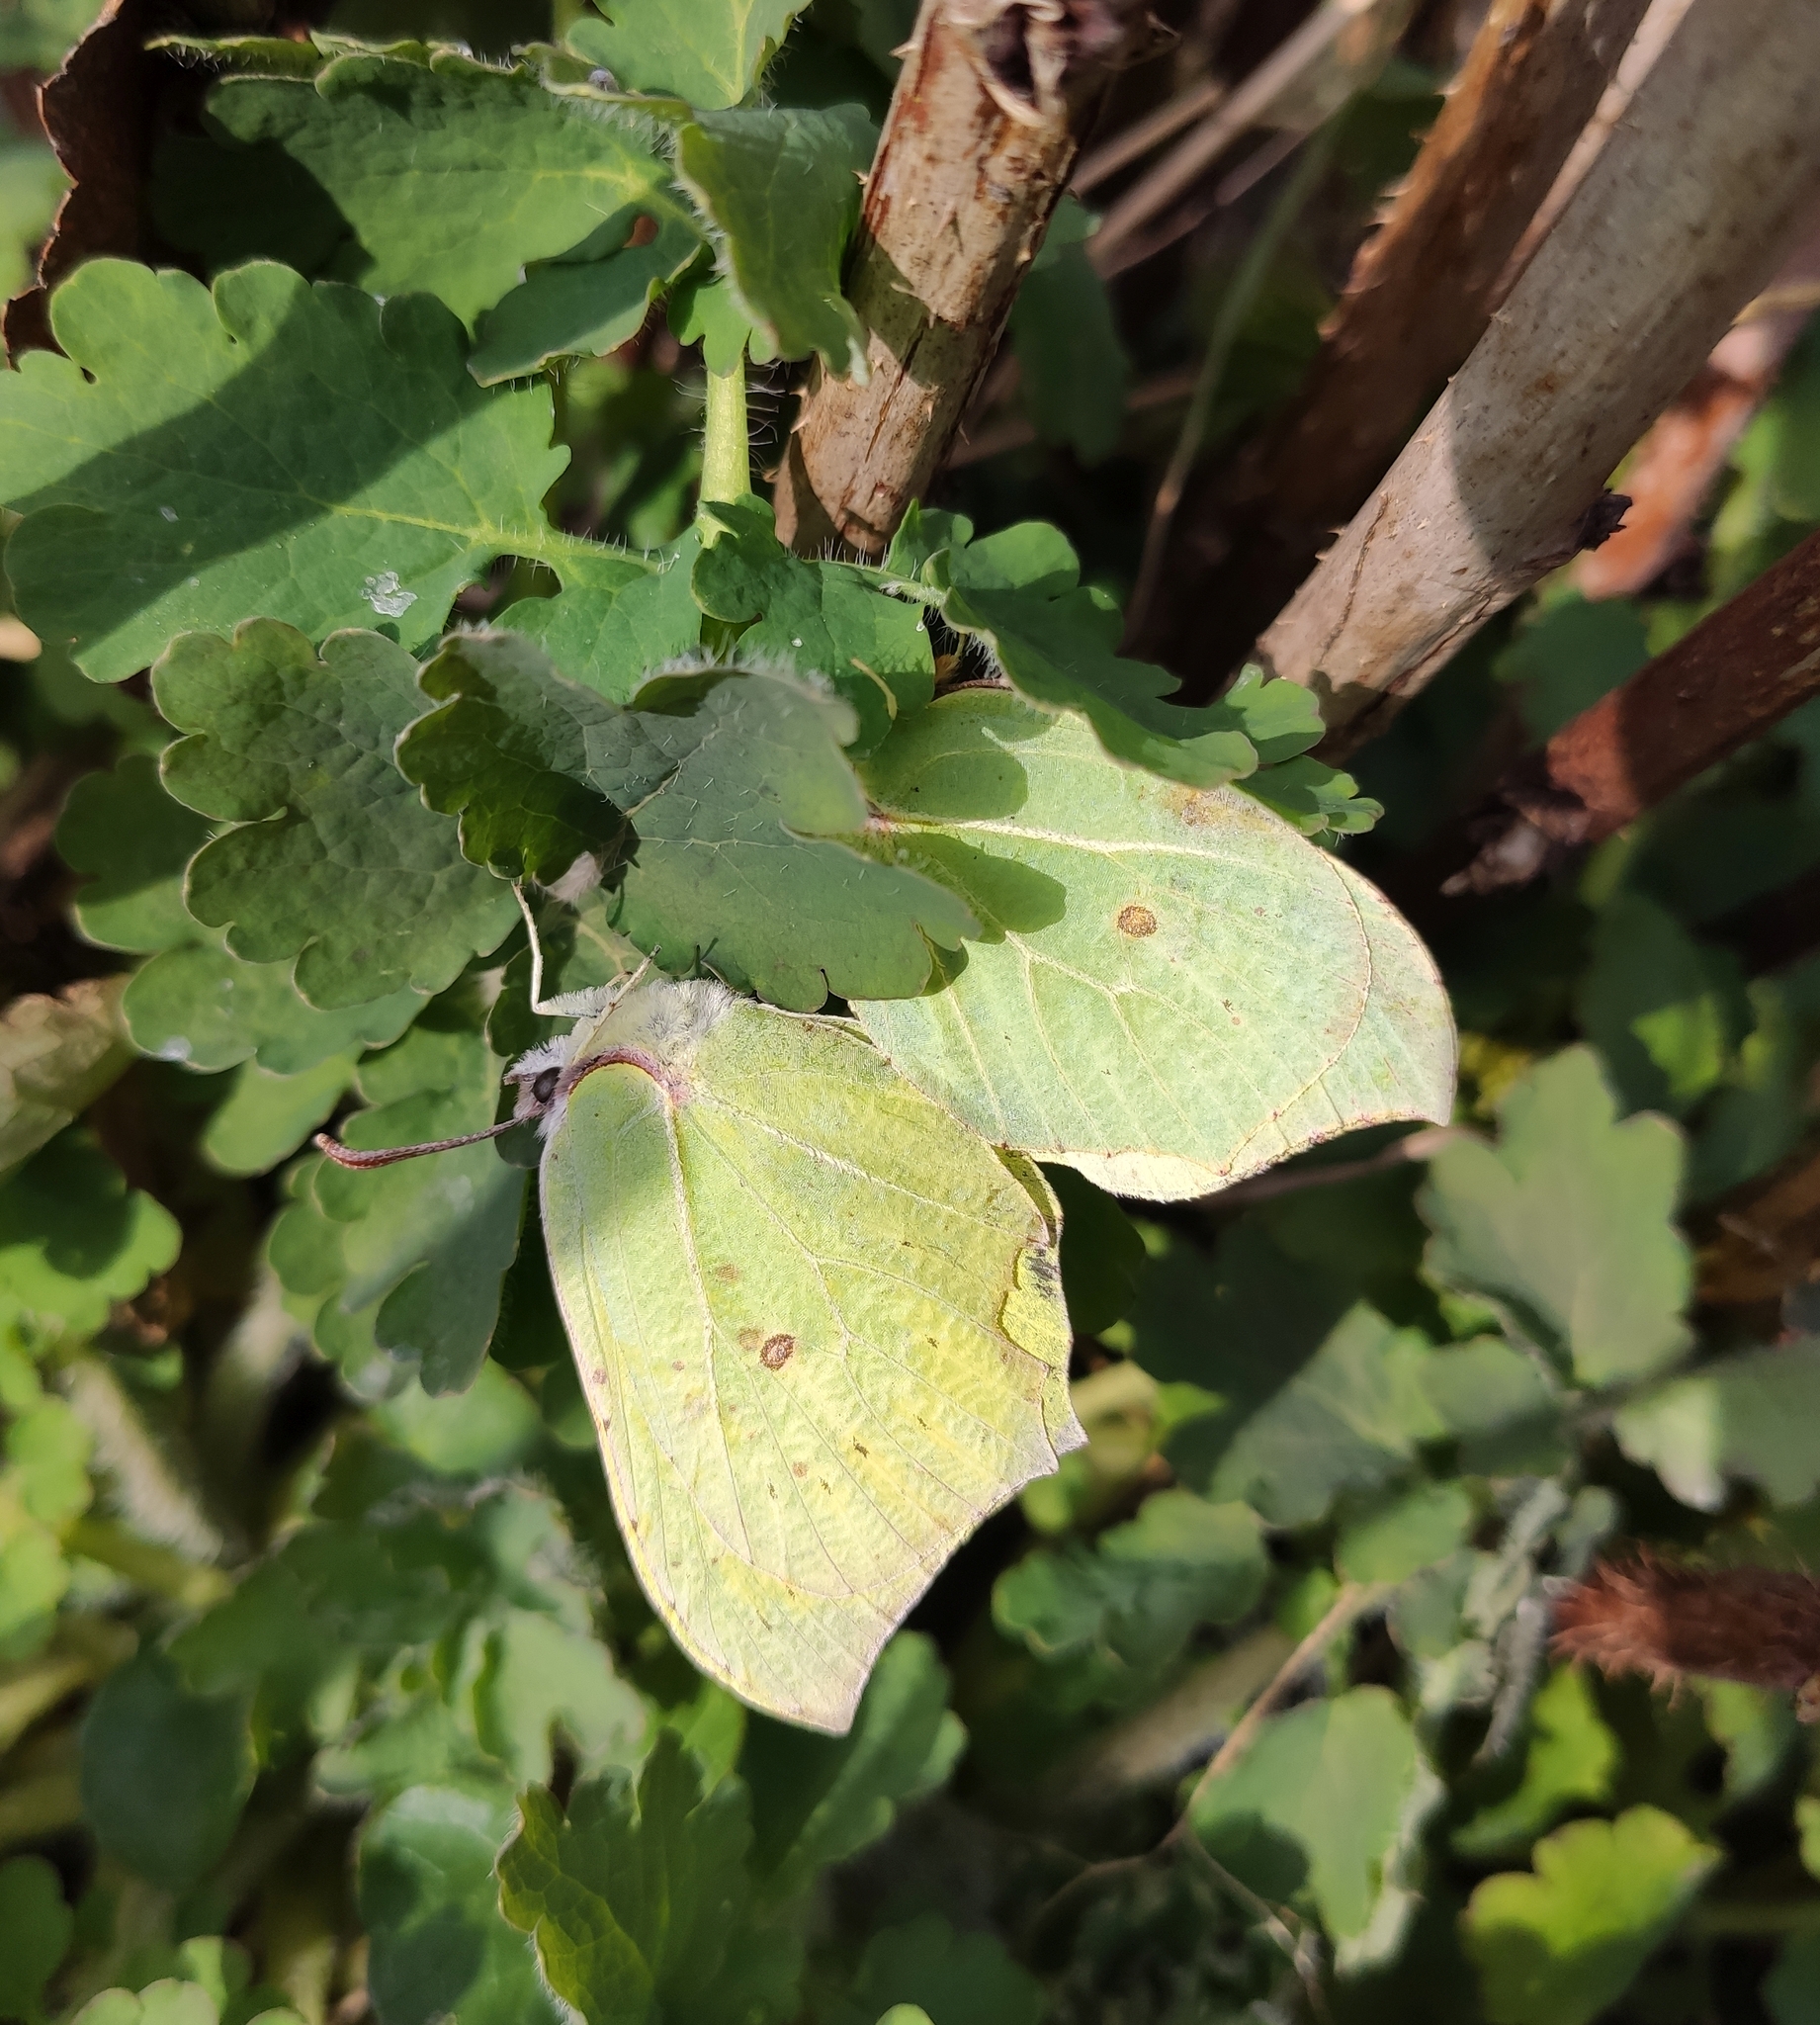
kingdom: Animalia
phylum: Arthropoda
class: Insecta
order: Lepidoptera
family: Pieridae
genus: Gonepteryx
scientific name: Gonepteryx rhamni
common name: Brimstone
